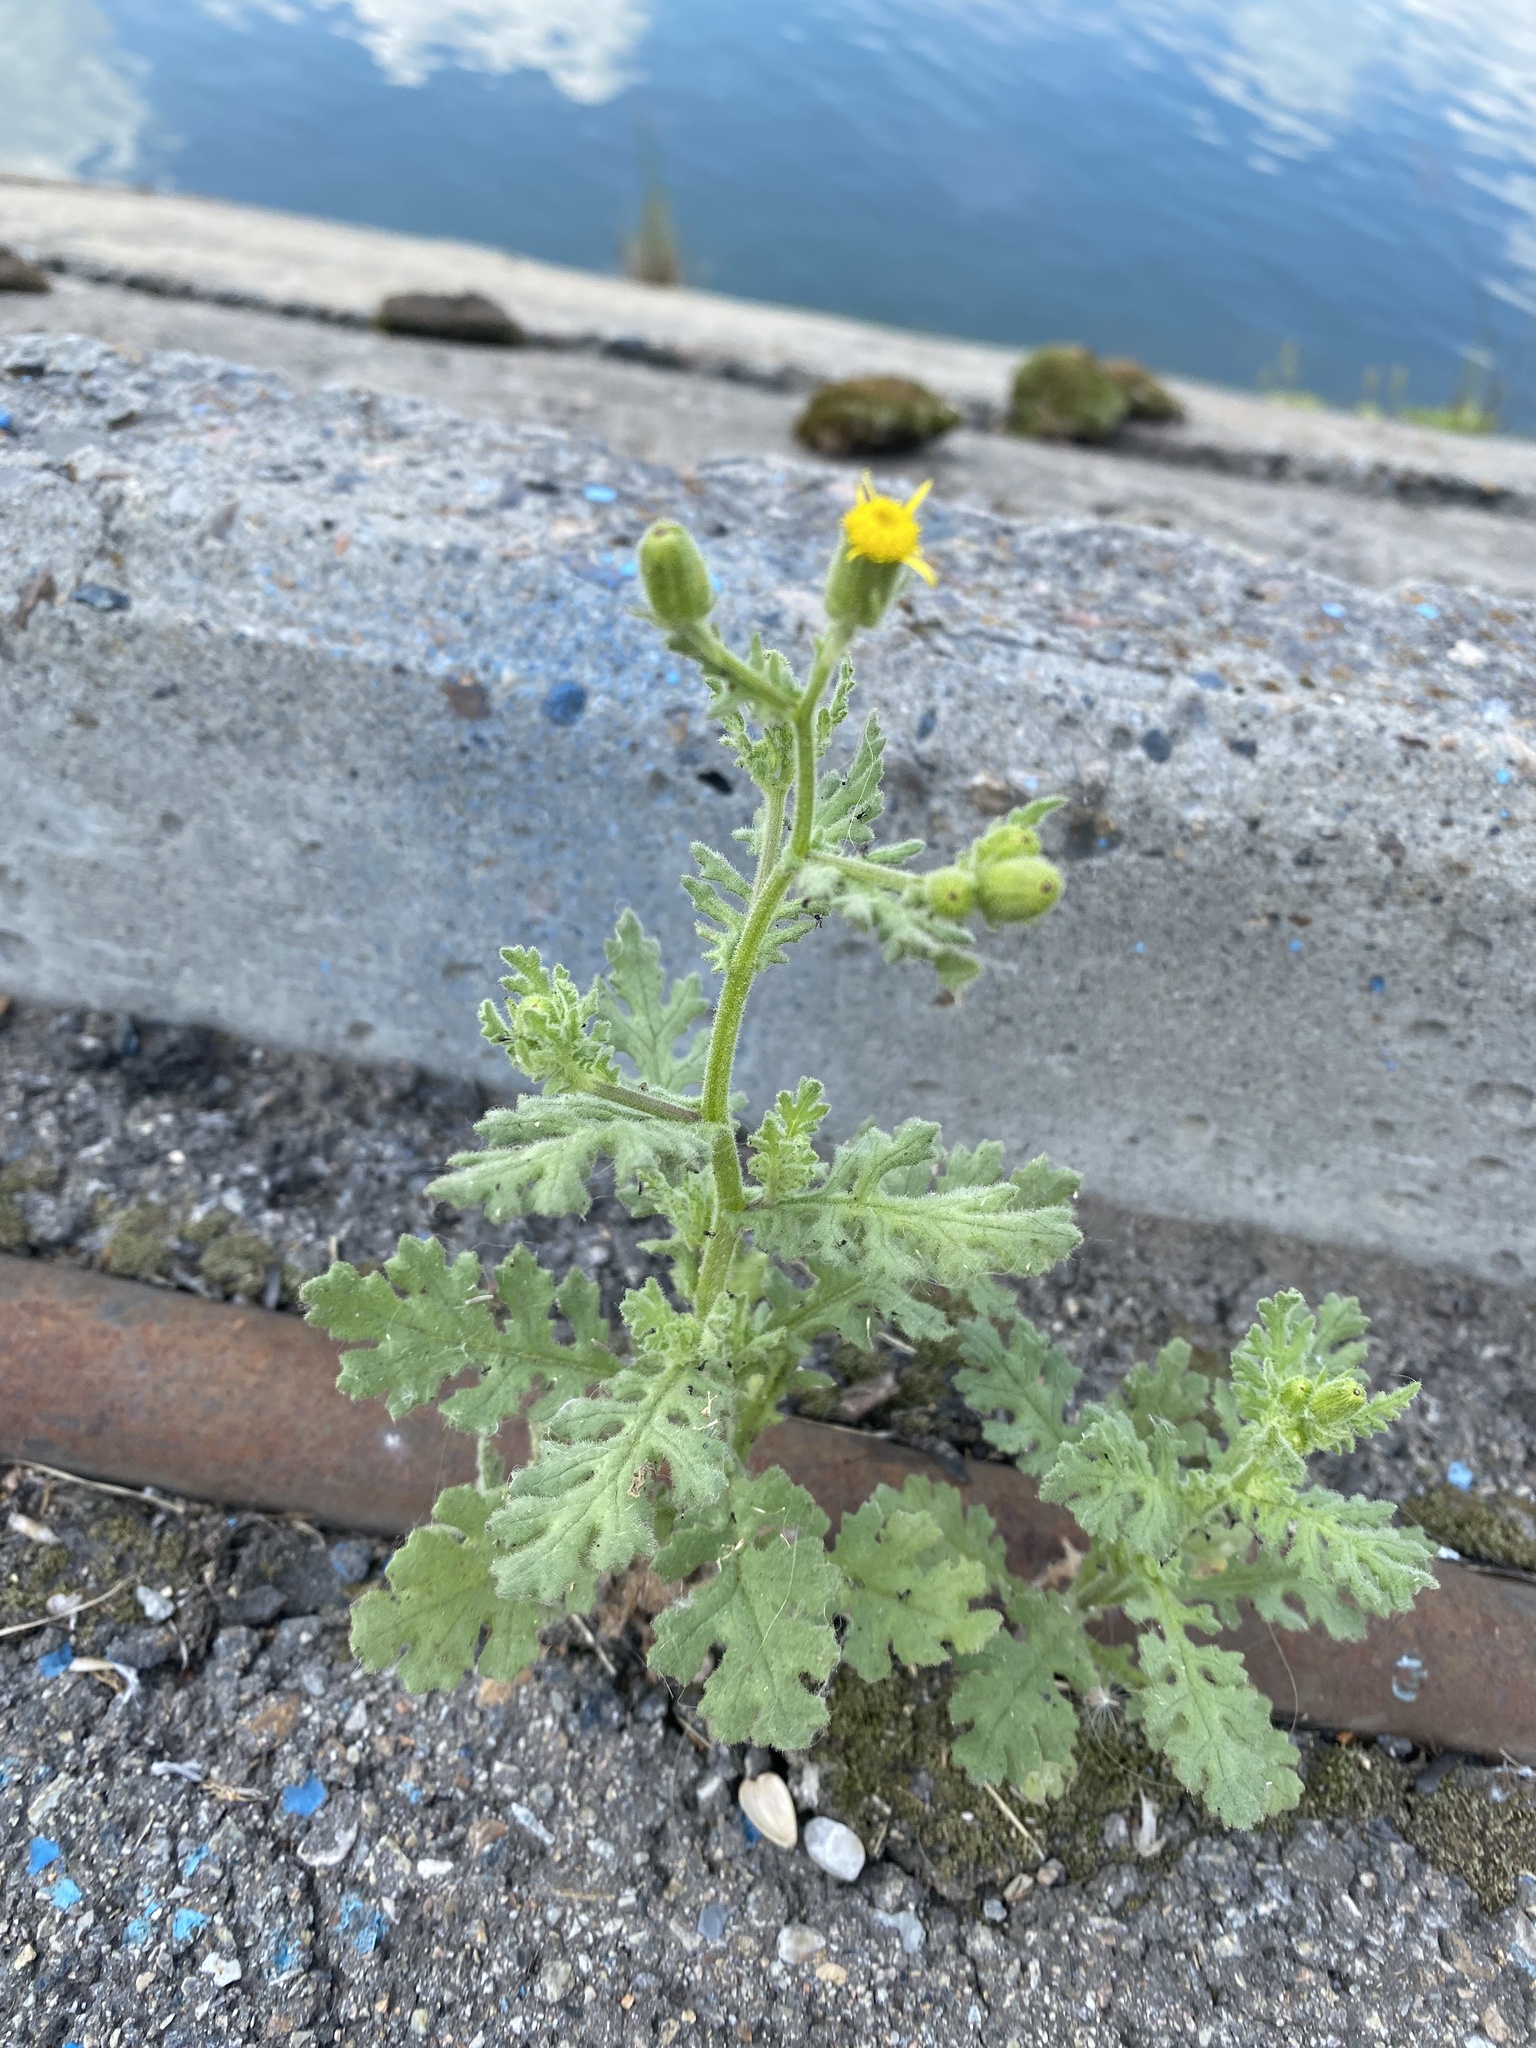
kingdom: Plantae
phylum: Tracheophyta
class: Magnoliopsida
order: Asterales
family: Asteraceae
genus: Senecio
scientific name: Senecio viscosus
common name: Sticky groundsel
